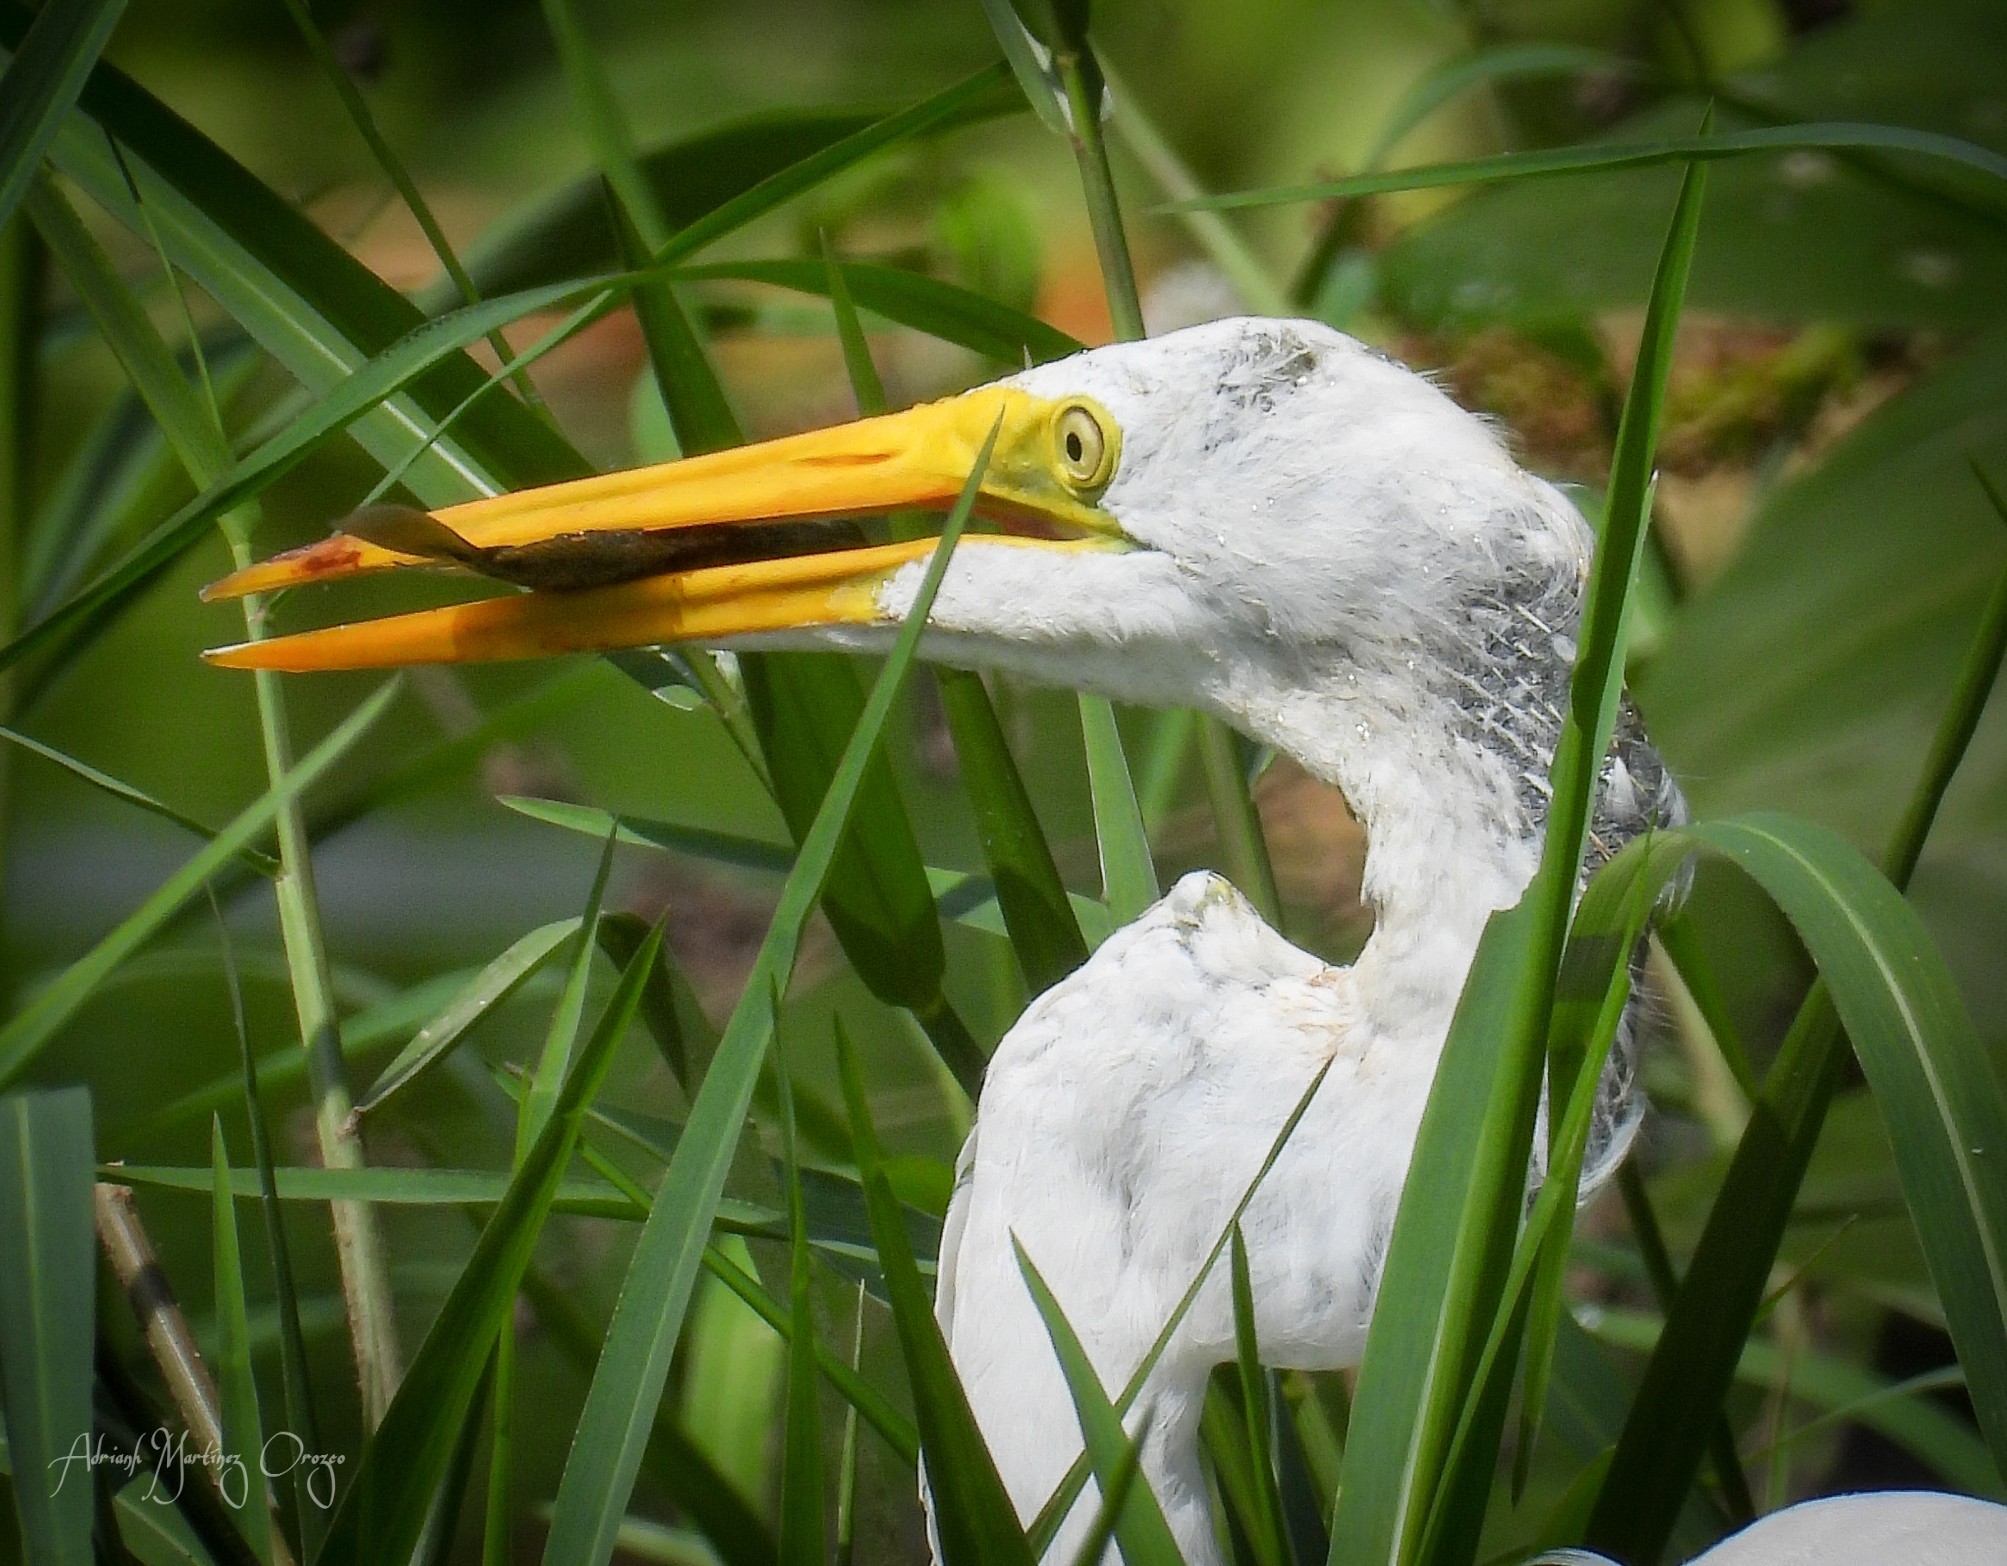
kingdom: Animalia
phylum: Chordata
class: Aves
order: Pelecaniformes
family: Ardeidae
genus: Ardea
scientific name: Ardea alba
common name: Great egret
